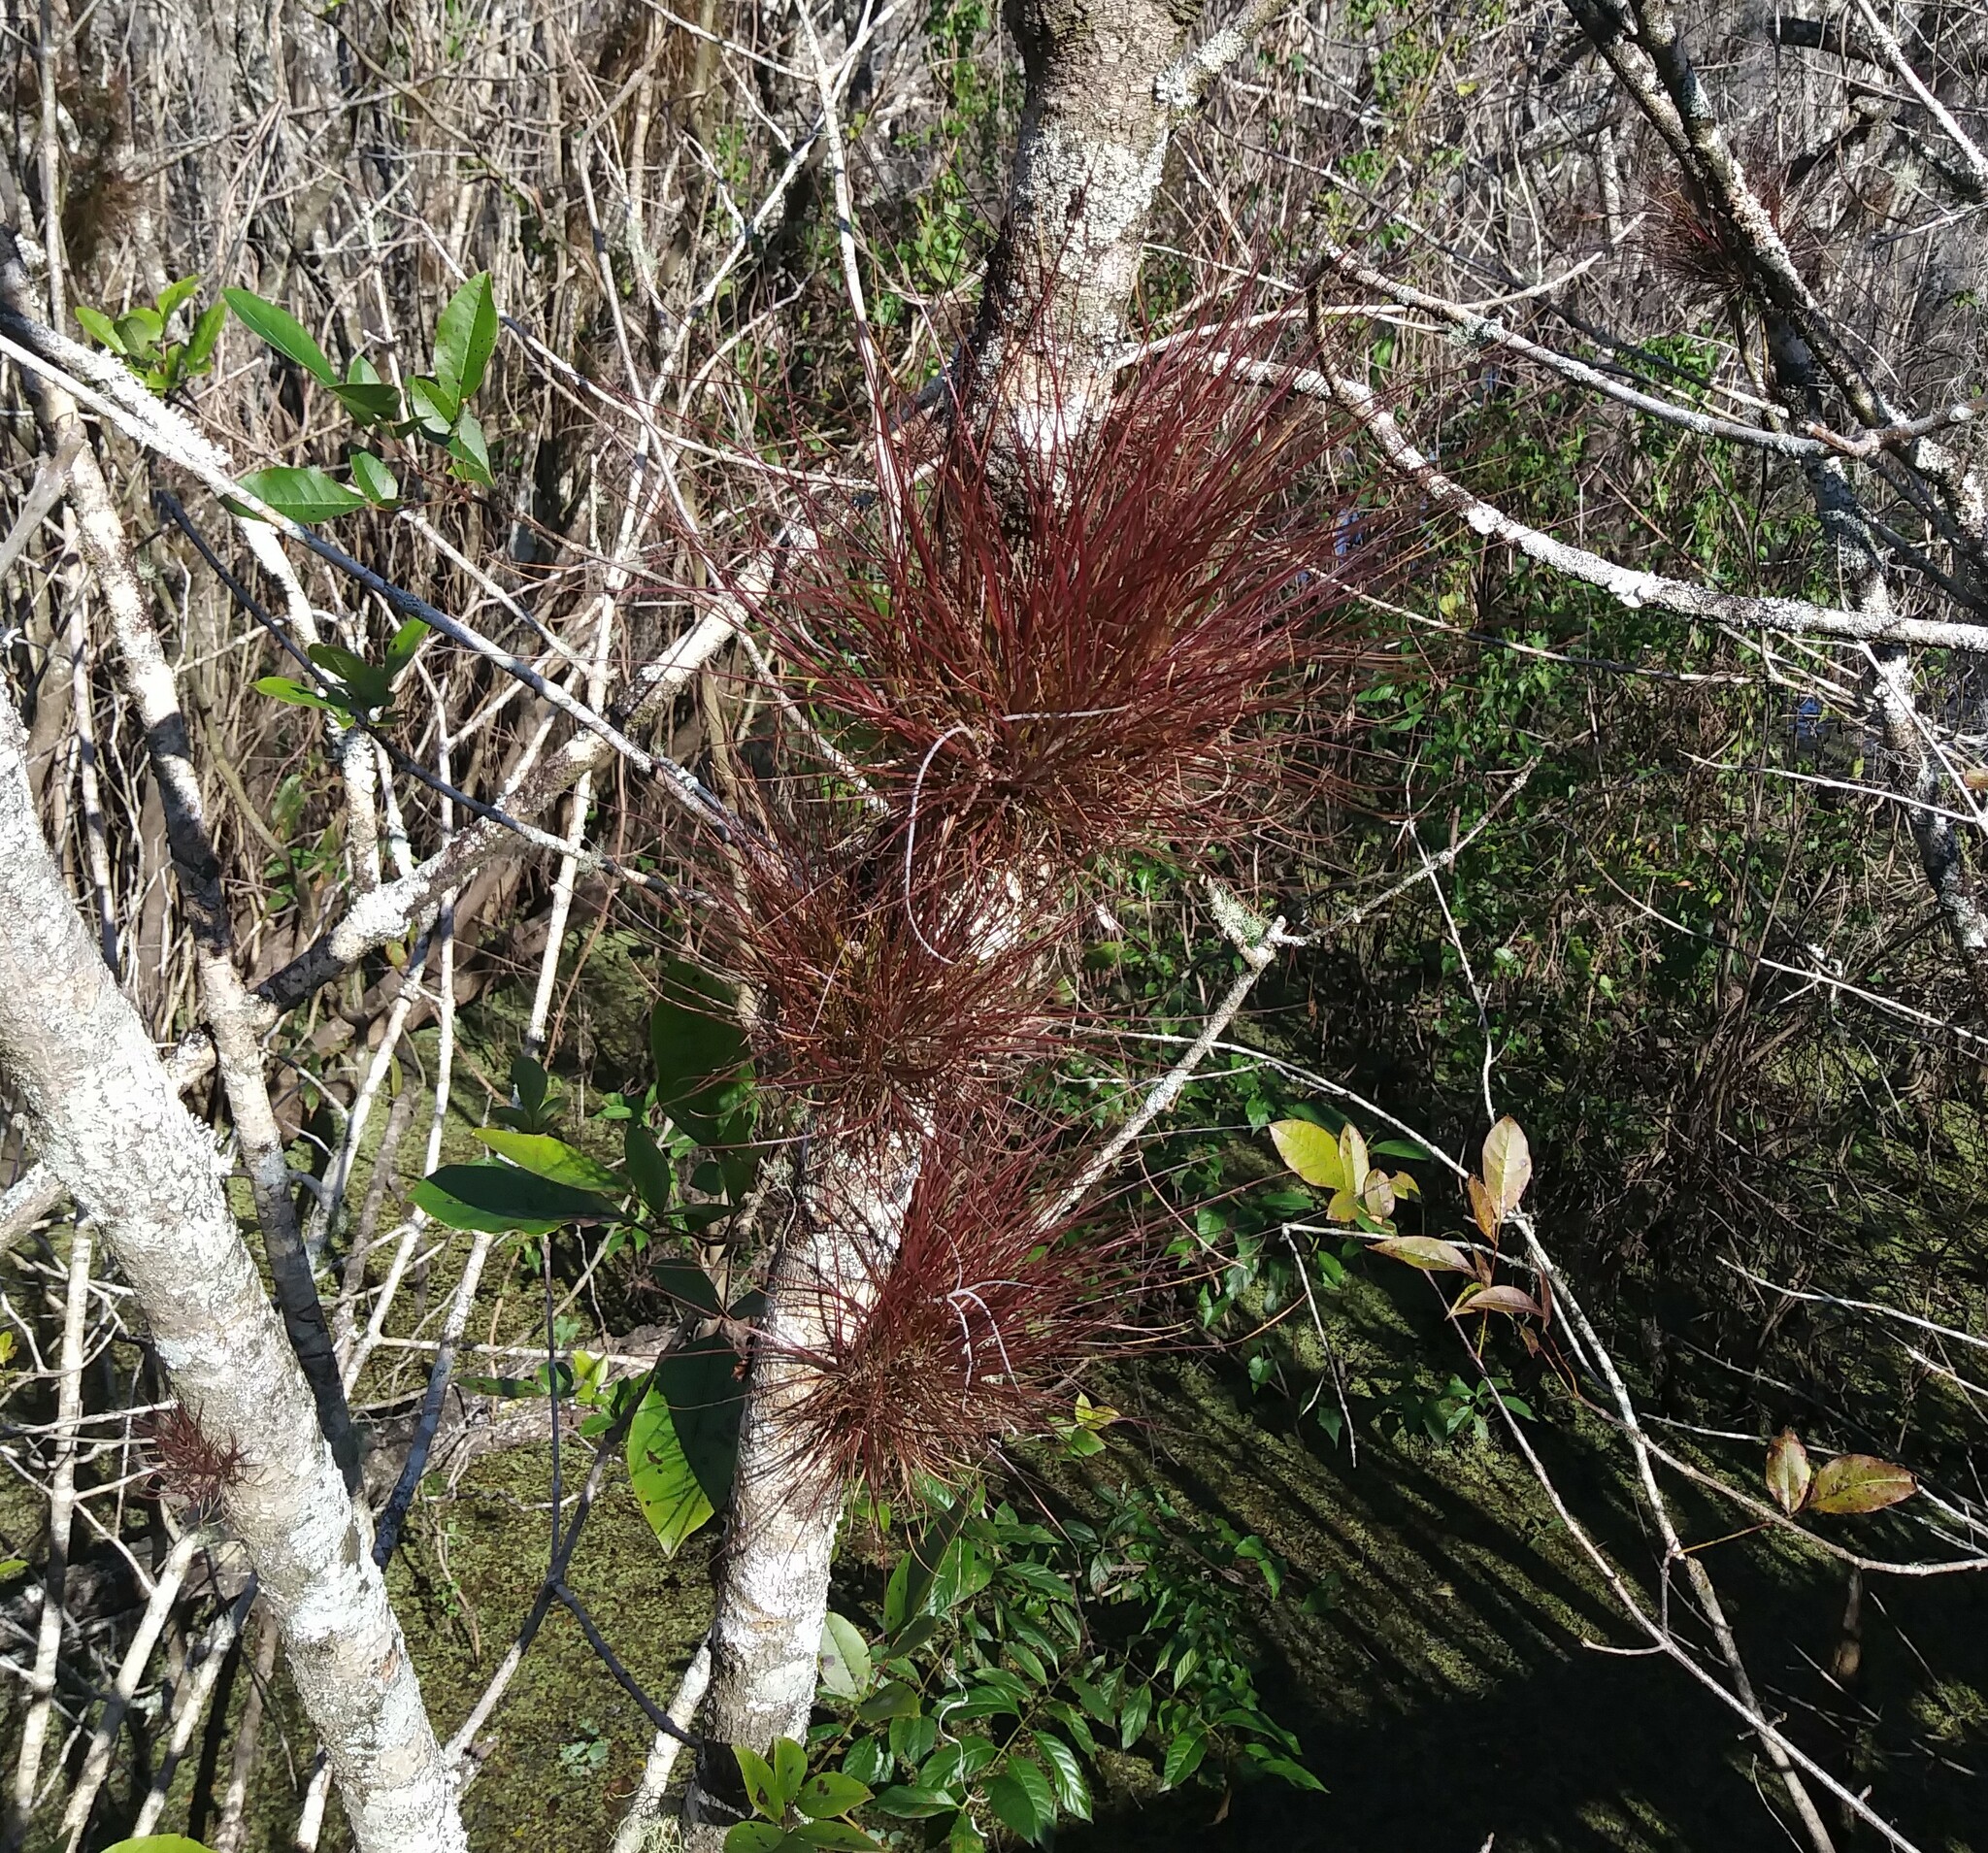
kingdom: Plantae
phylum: Tracheophyta
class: Liliopsida
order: Poales
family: Bromeliaceae
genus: Tillandsia
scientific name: Tillandsia setacea
